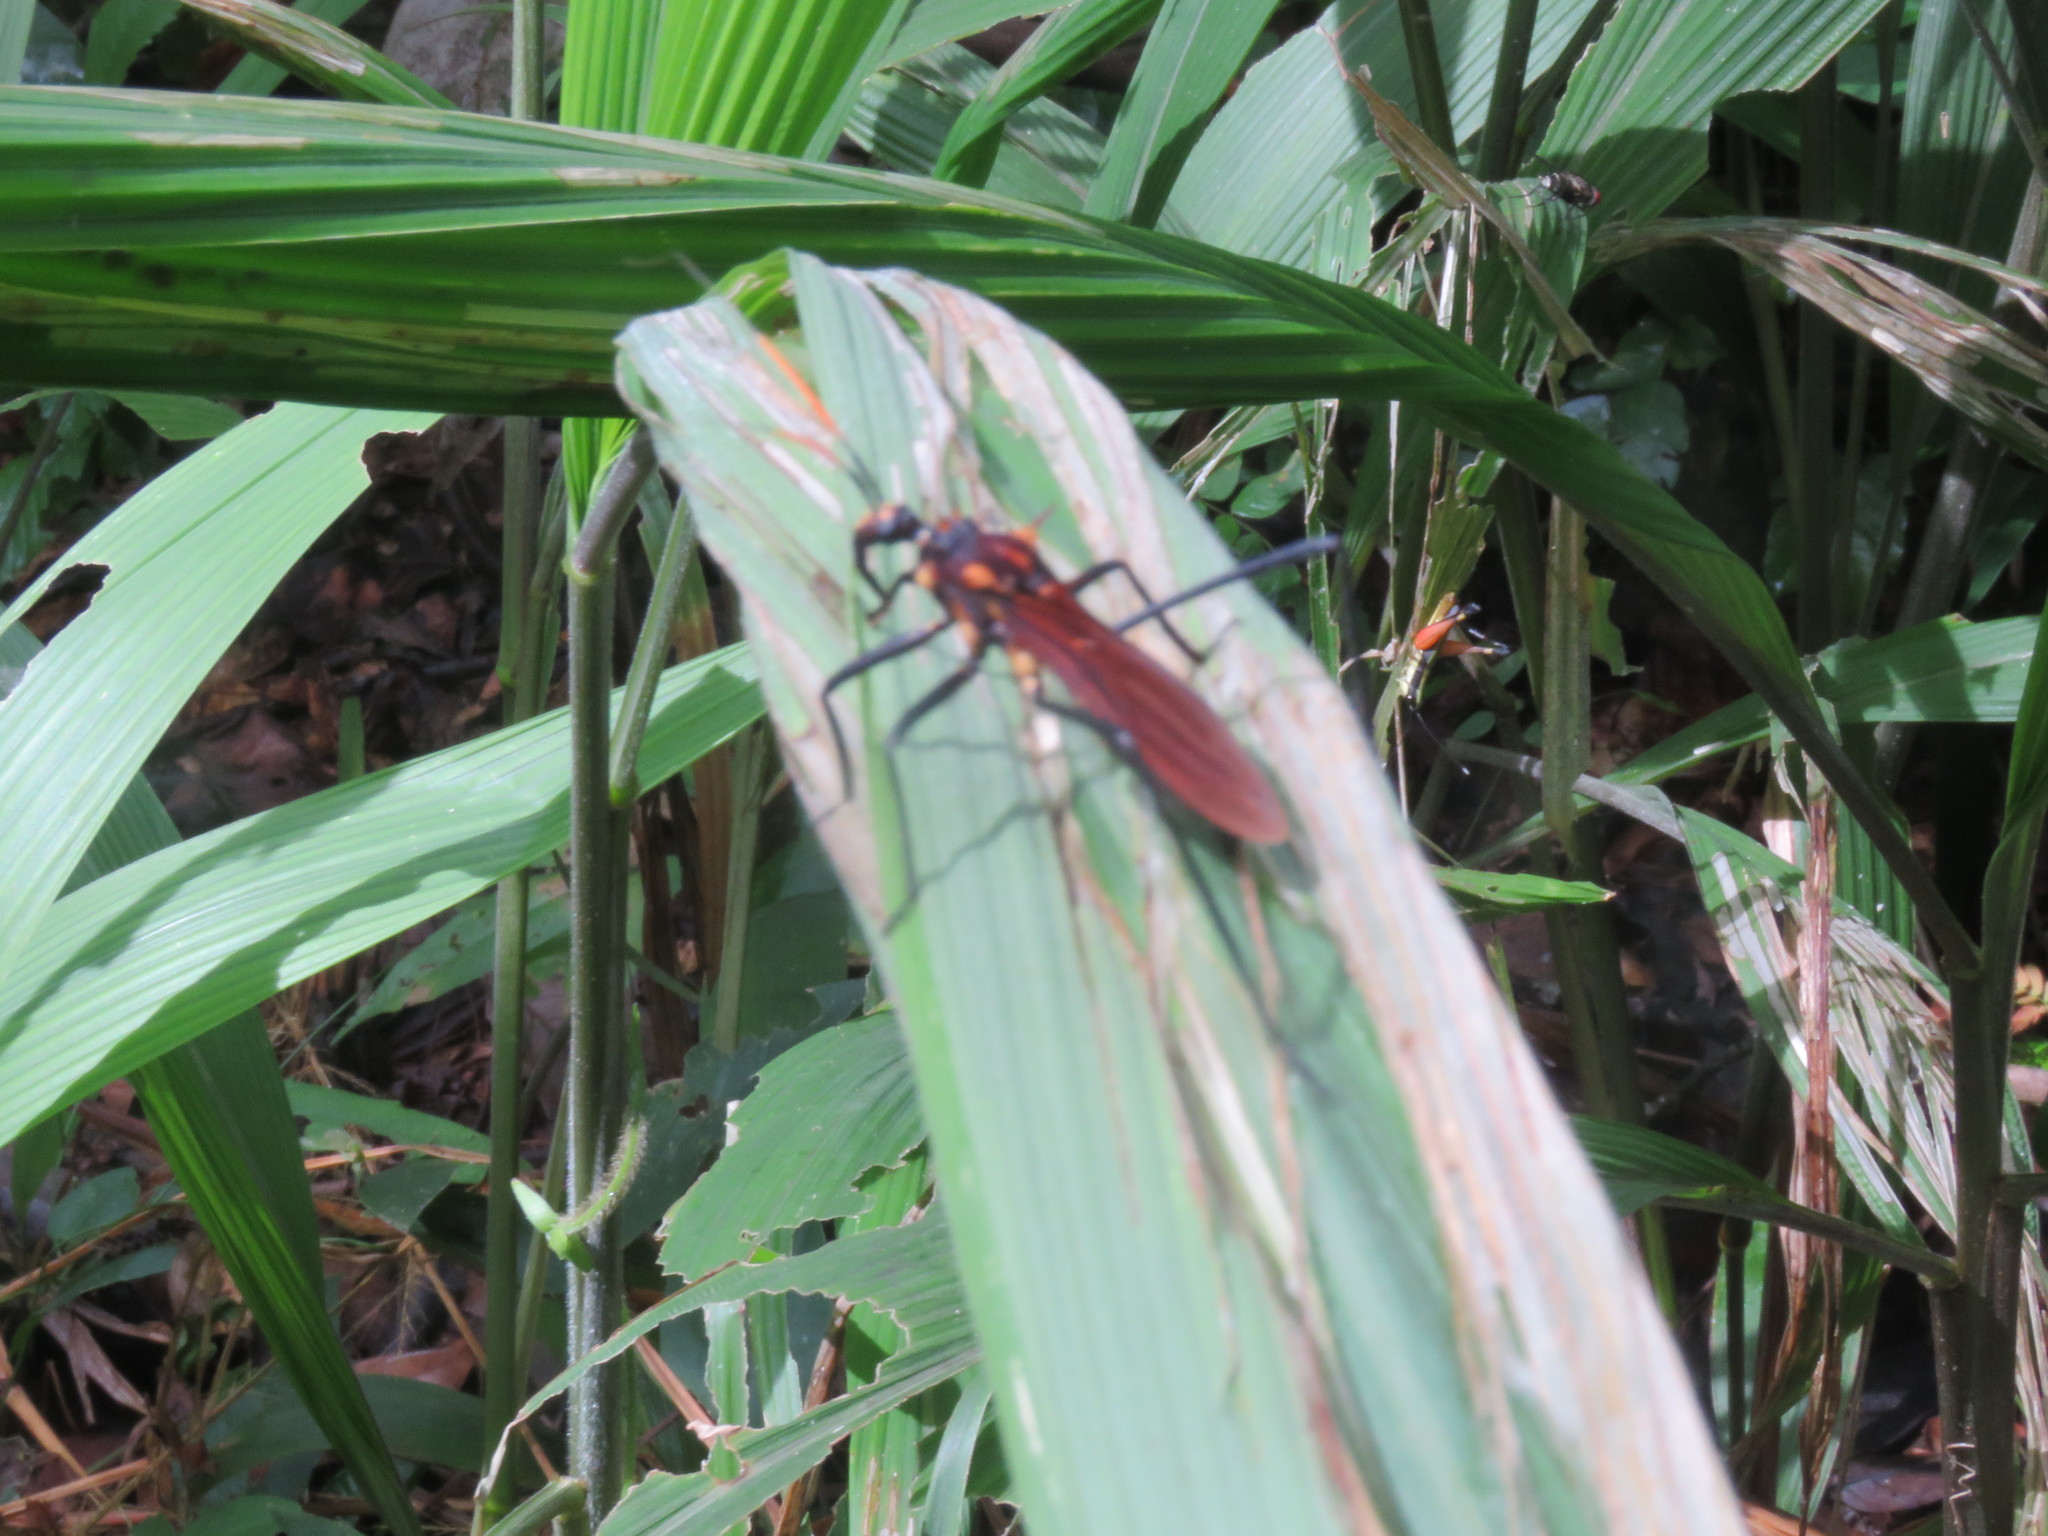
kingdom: Animalia
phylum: Arthropoda
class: Insecta
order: Hemiptera
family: Reduviidae
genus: Zelurus
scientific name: Zelurus festivus
